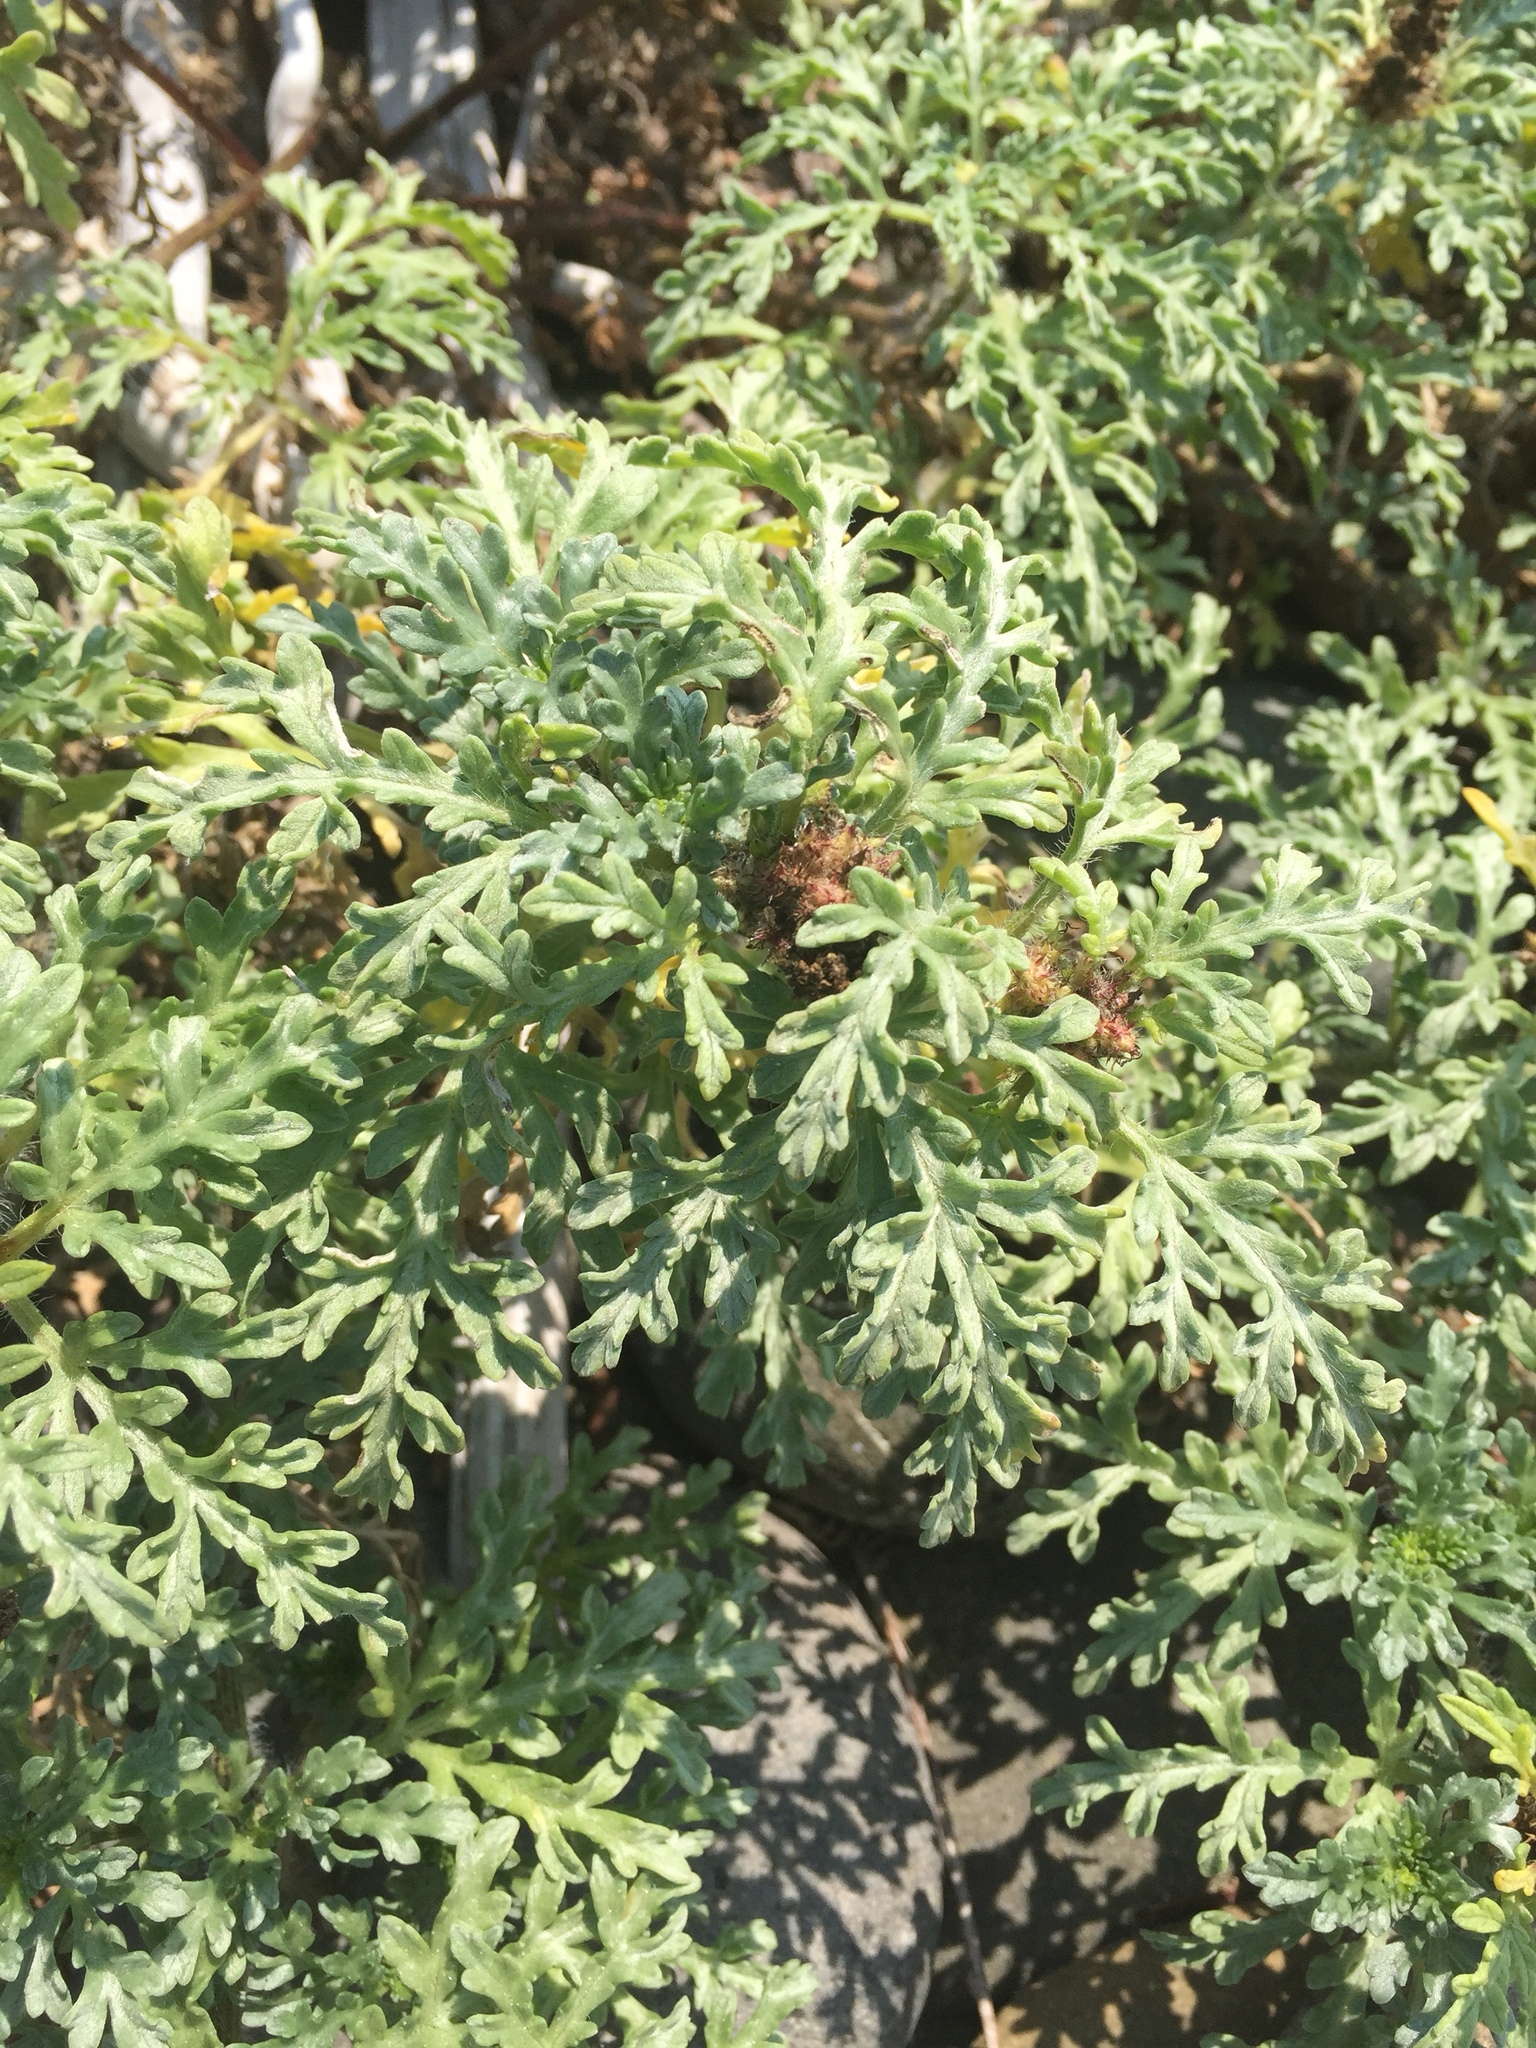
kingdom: Plantae
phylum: Tracheophyta
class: Magnoliopsida
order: Asterales
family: Asteraceae
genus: Ambrosia
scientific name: Ambrosia chamissonis
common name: Beachbur
